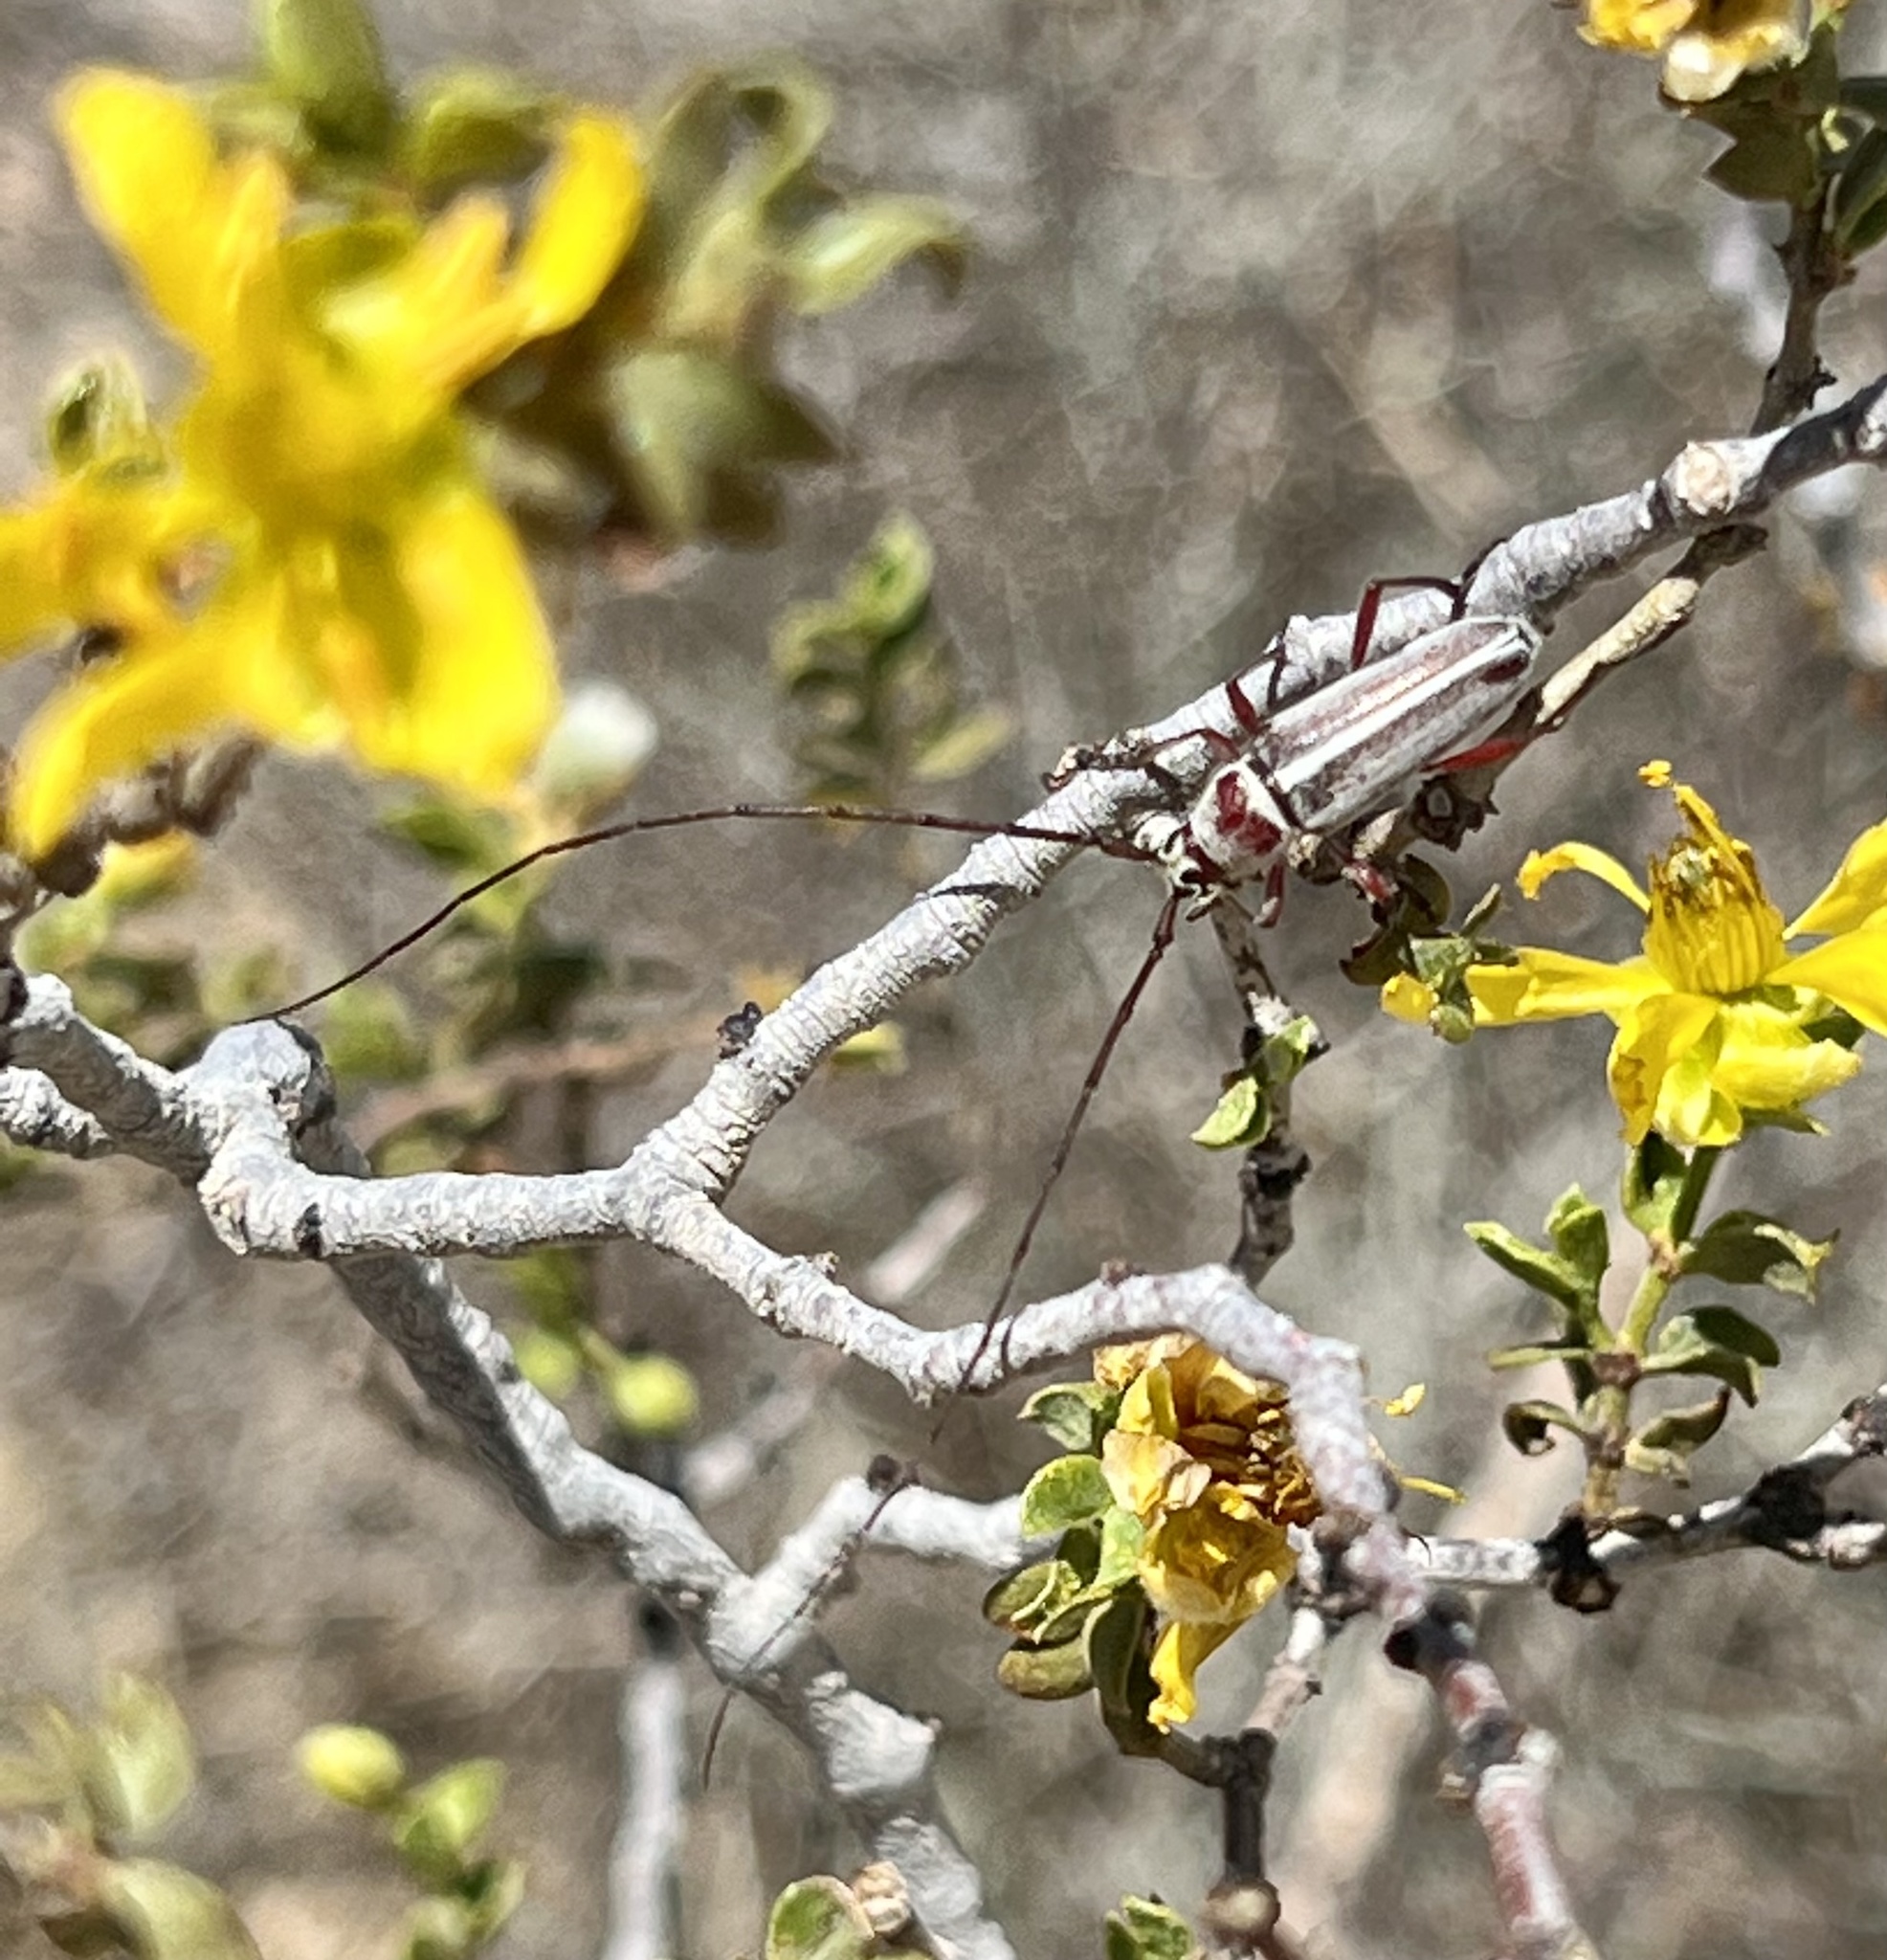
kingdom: Animalia
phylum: Arthropoda
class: Insecta
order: Coleoptera
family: Cerambycidae
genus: Plionoma
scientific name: Plionoma rubens
